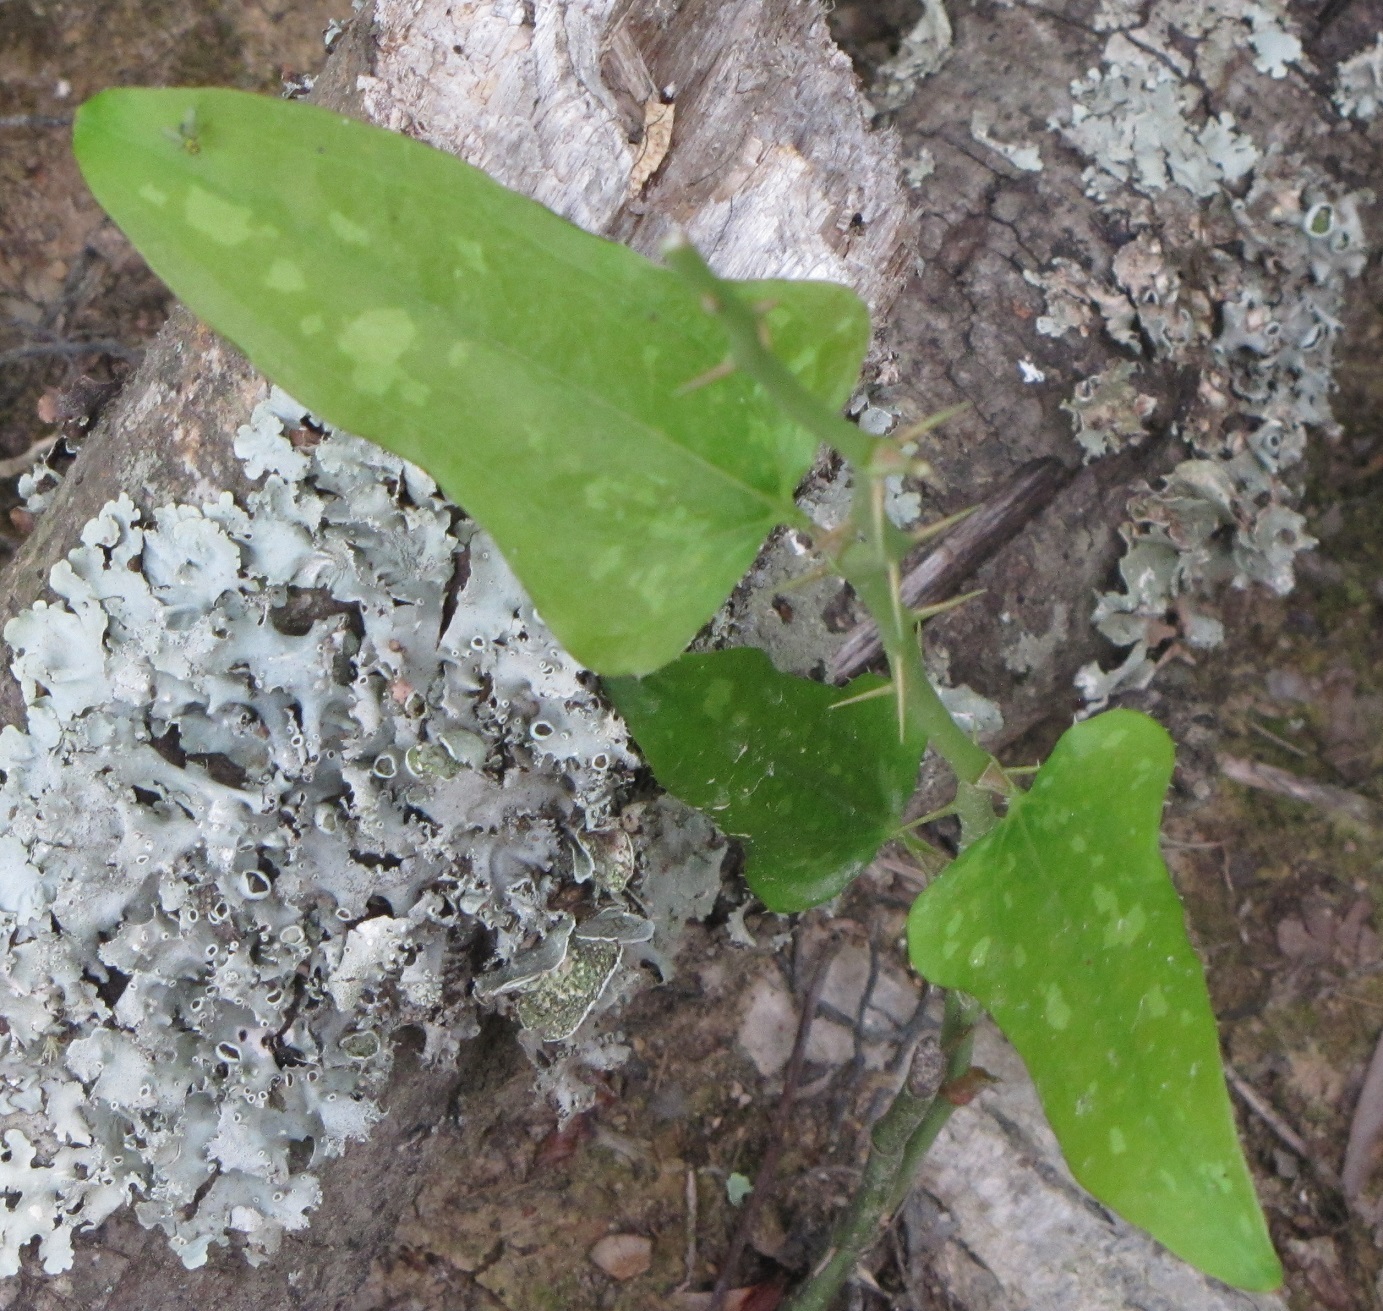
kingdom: Plantae
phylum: Tracheophyta
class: Liliopsida
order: Liliales
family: Smilacaceae
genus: Smilax
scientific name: Smilax bona-nox
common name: Catbrier
